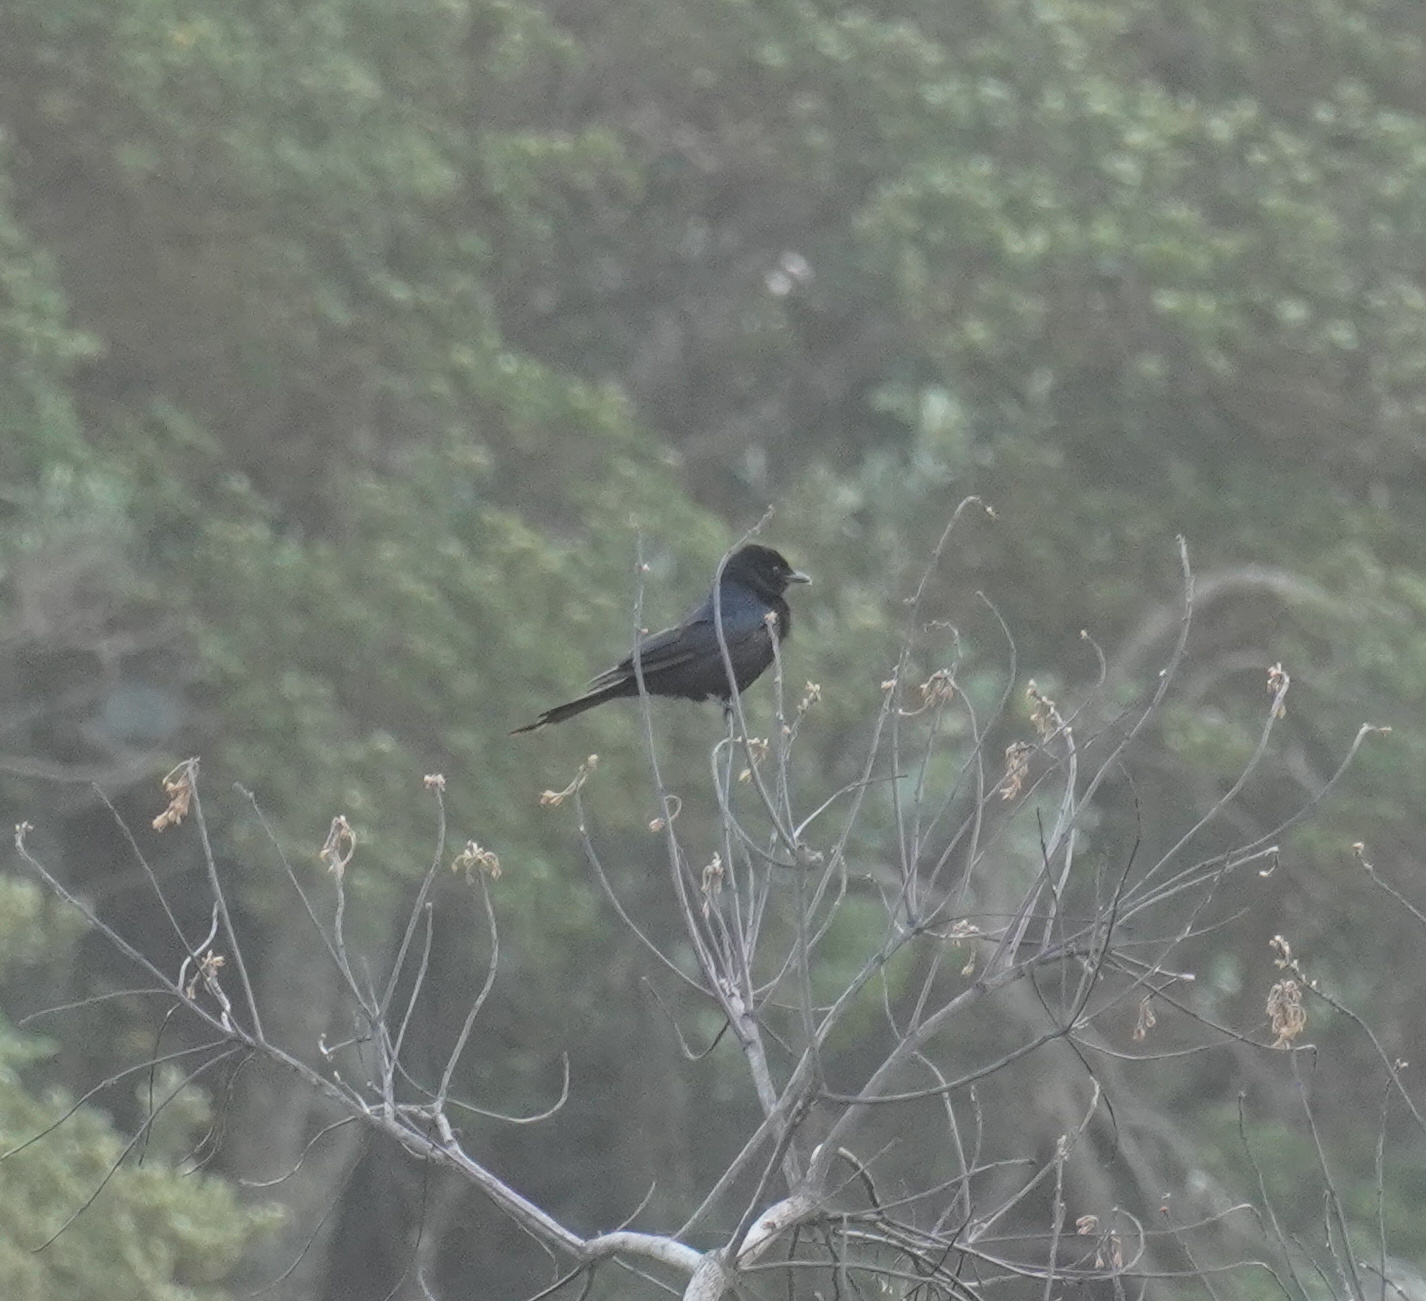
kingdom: Animalia
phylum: Chordata
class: Aves
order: Passeriformes
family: Dicruridae
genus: Dicrurus
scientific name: Dicrurus adsimilis
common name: Fork-tailed drongo
